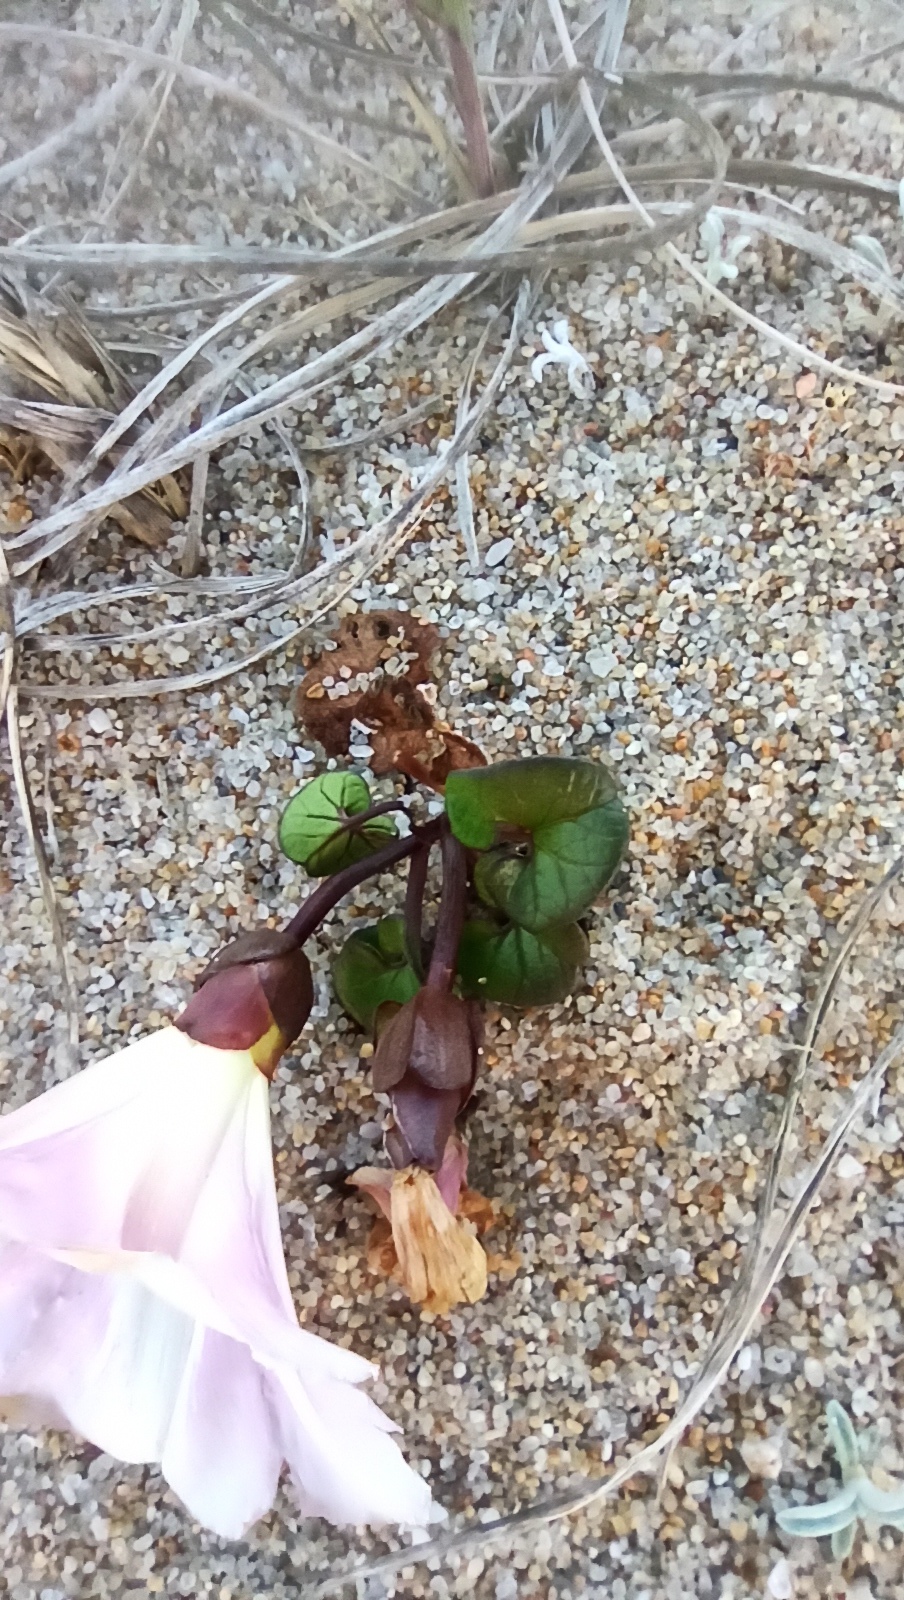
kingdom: Plantae
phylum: Tracheophyta
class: Magnoliopsida
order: Solanales
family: Convolvulaceae
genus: Calystegia
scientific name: Calystegia soldanella
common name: Sea bindweed
